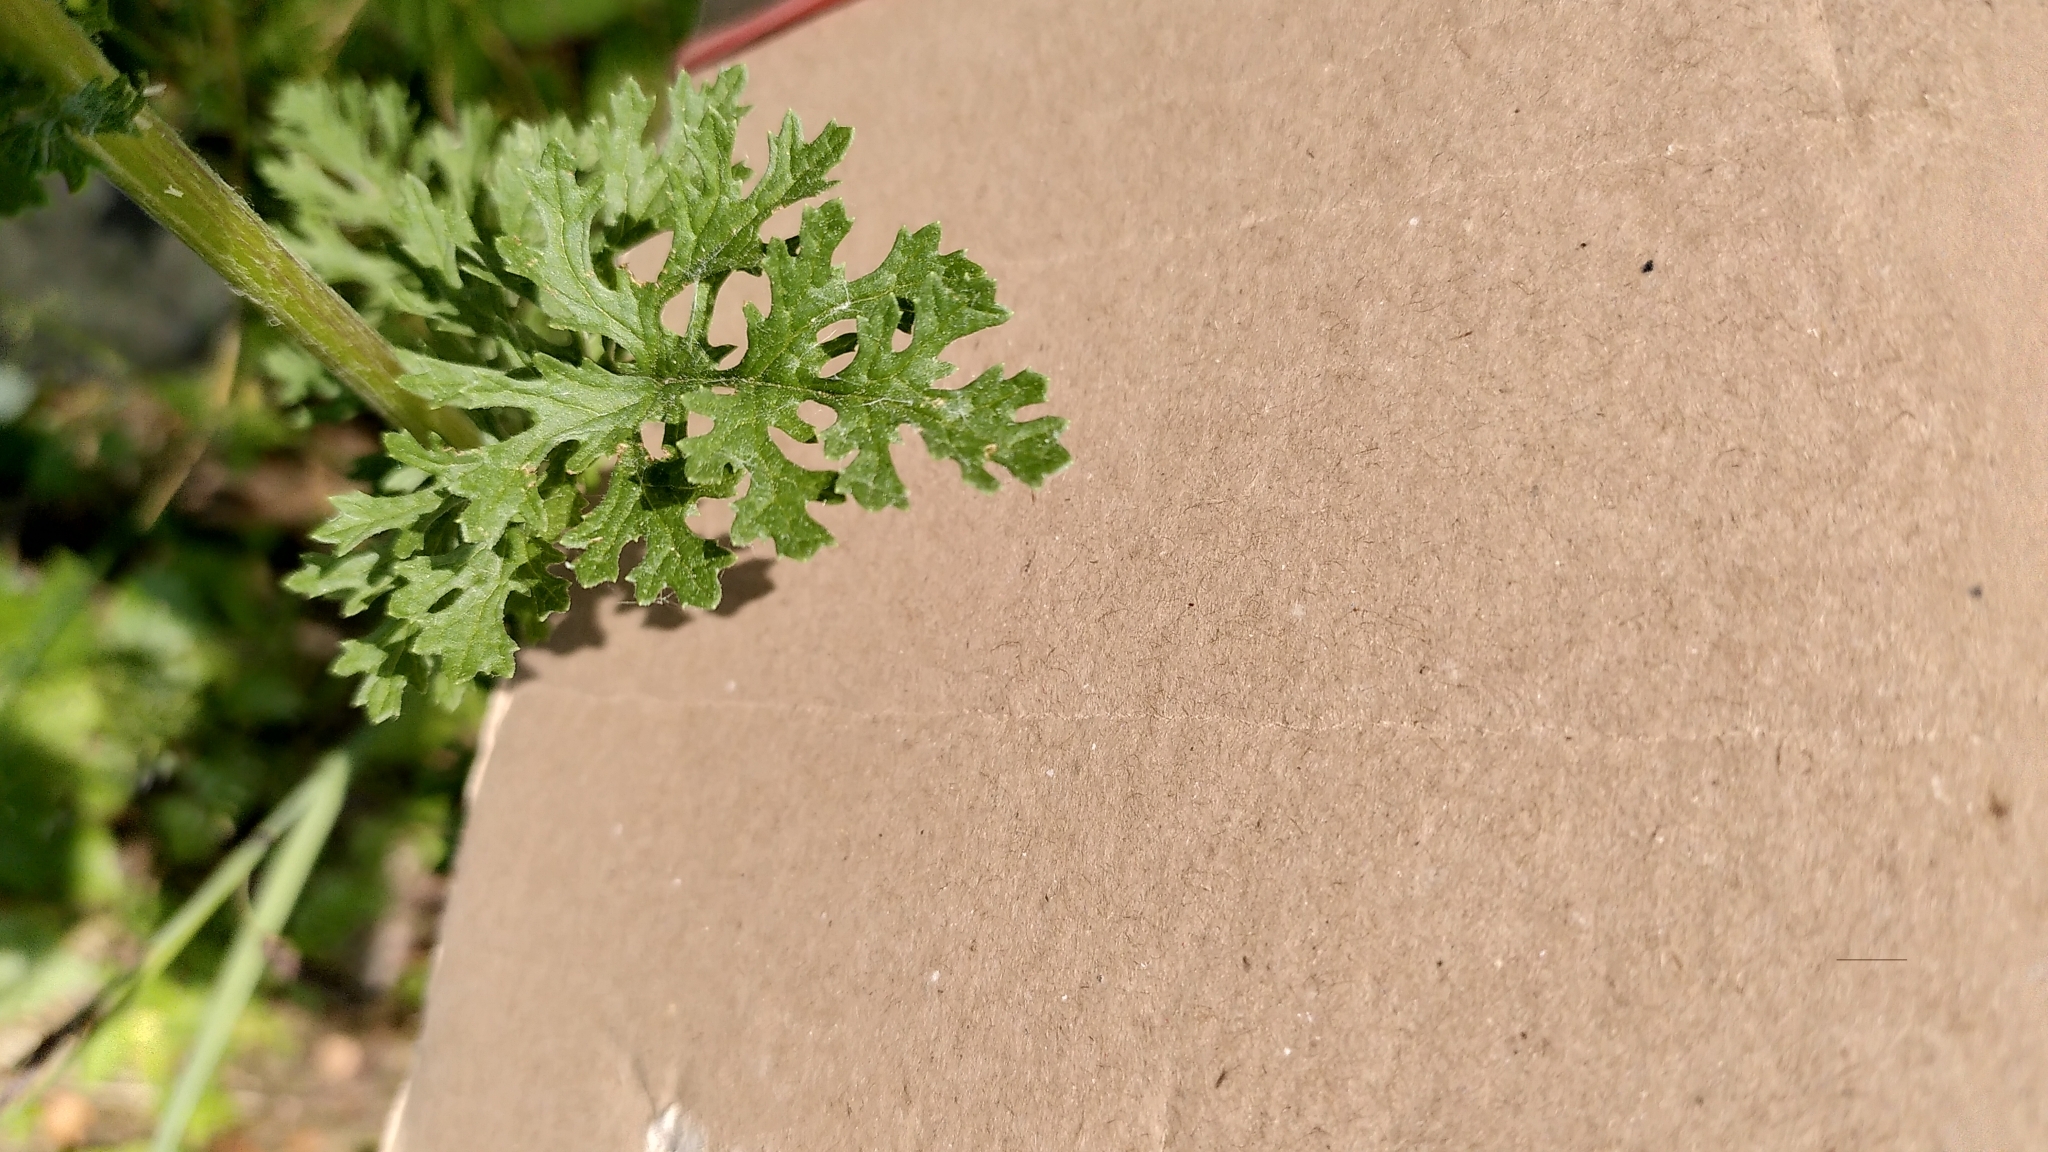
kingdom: Plantae
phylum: Tracheophyta
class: Magnoliopsida
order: Asterales
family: Asteraceae
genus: Jacobaea
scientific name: Jacobaea erucifolia
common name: Hoary ragwort
